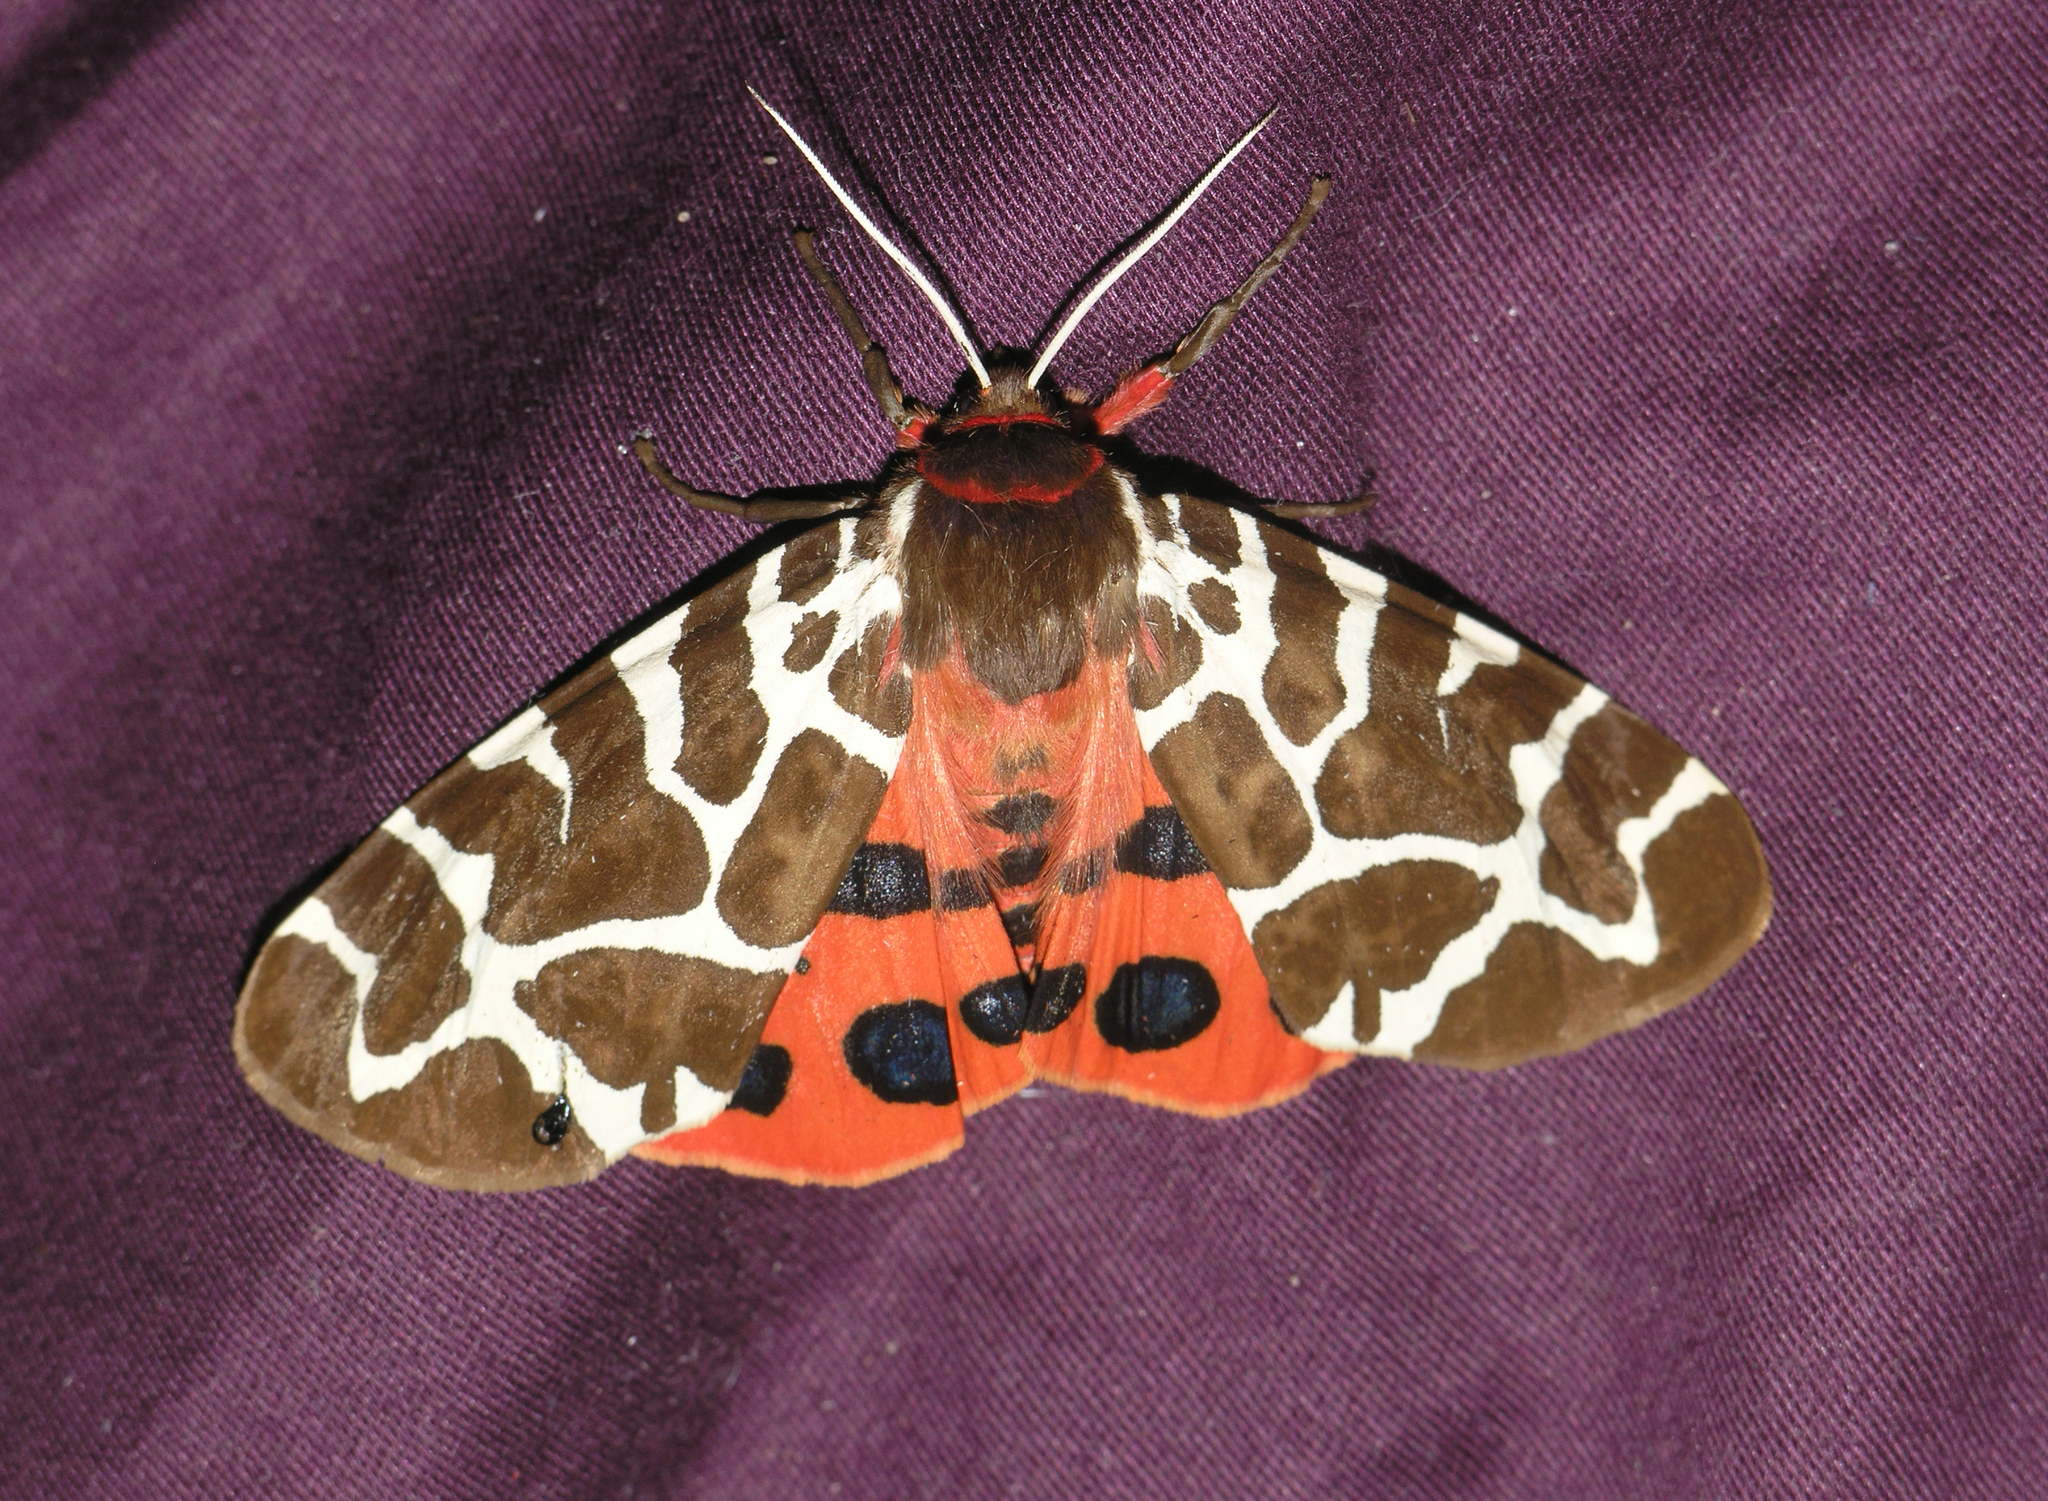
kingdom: Animalia
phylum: Arthropoda
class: Insecta
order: Lepidoptera
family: Erebidae
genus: Arctia
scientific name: Arctia caja
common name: Garden tiger
